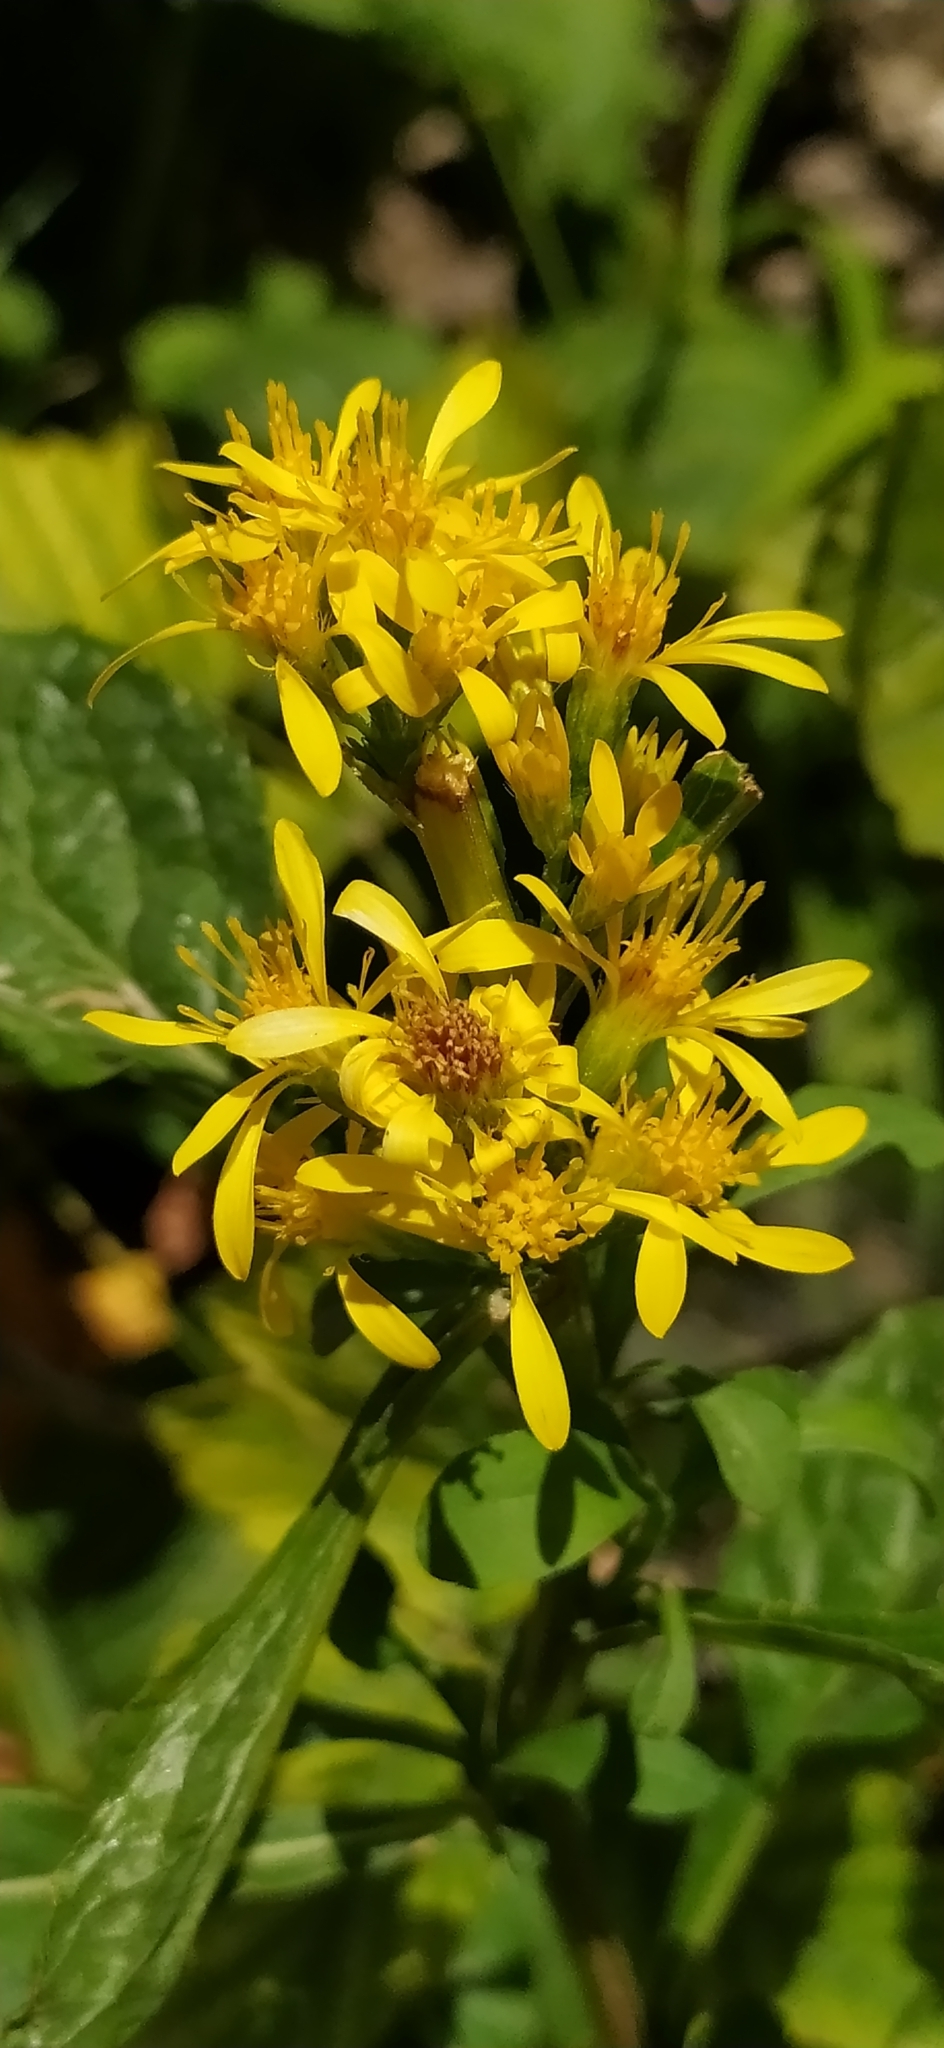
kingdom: Plantae
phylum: Tracheophyta
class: Magnoliopsida
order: Asterales
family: Asteraceae
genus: Solidago
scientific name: Solidago virgaurea
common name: Goldenrod
